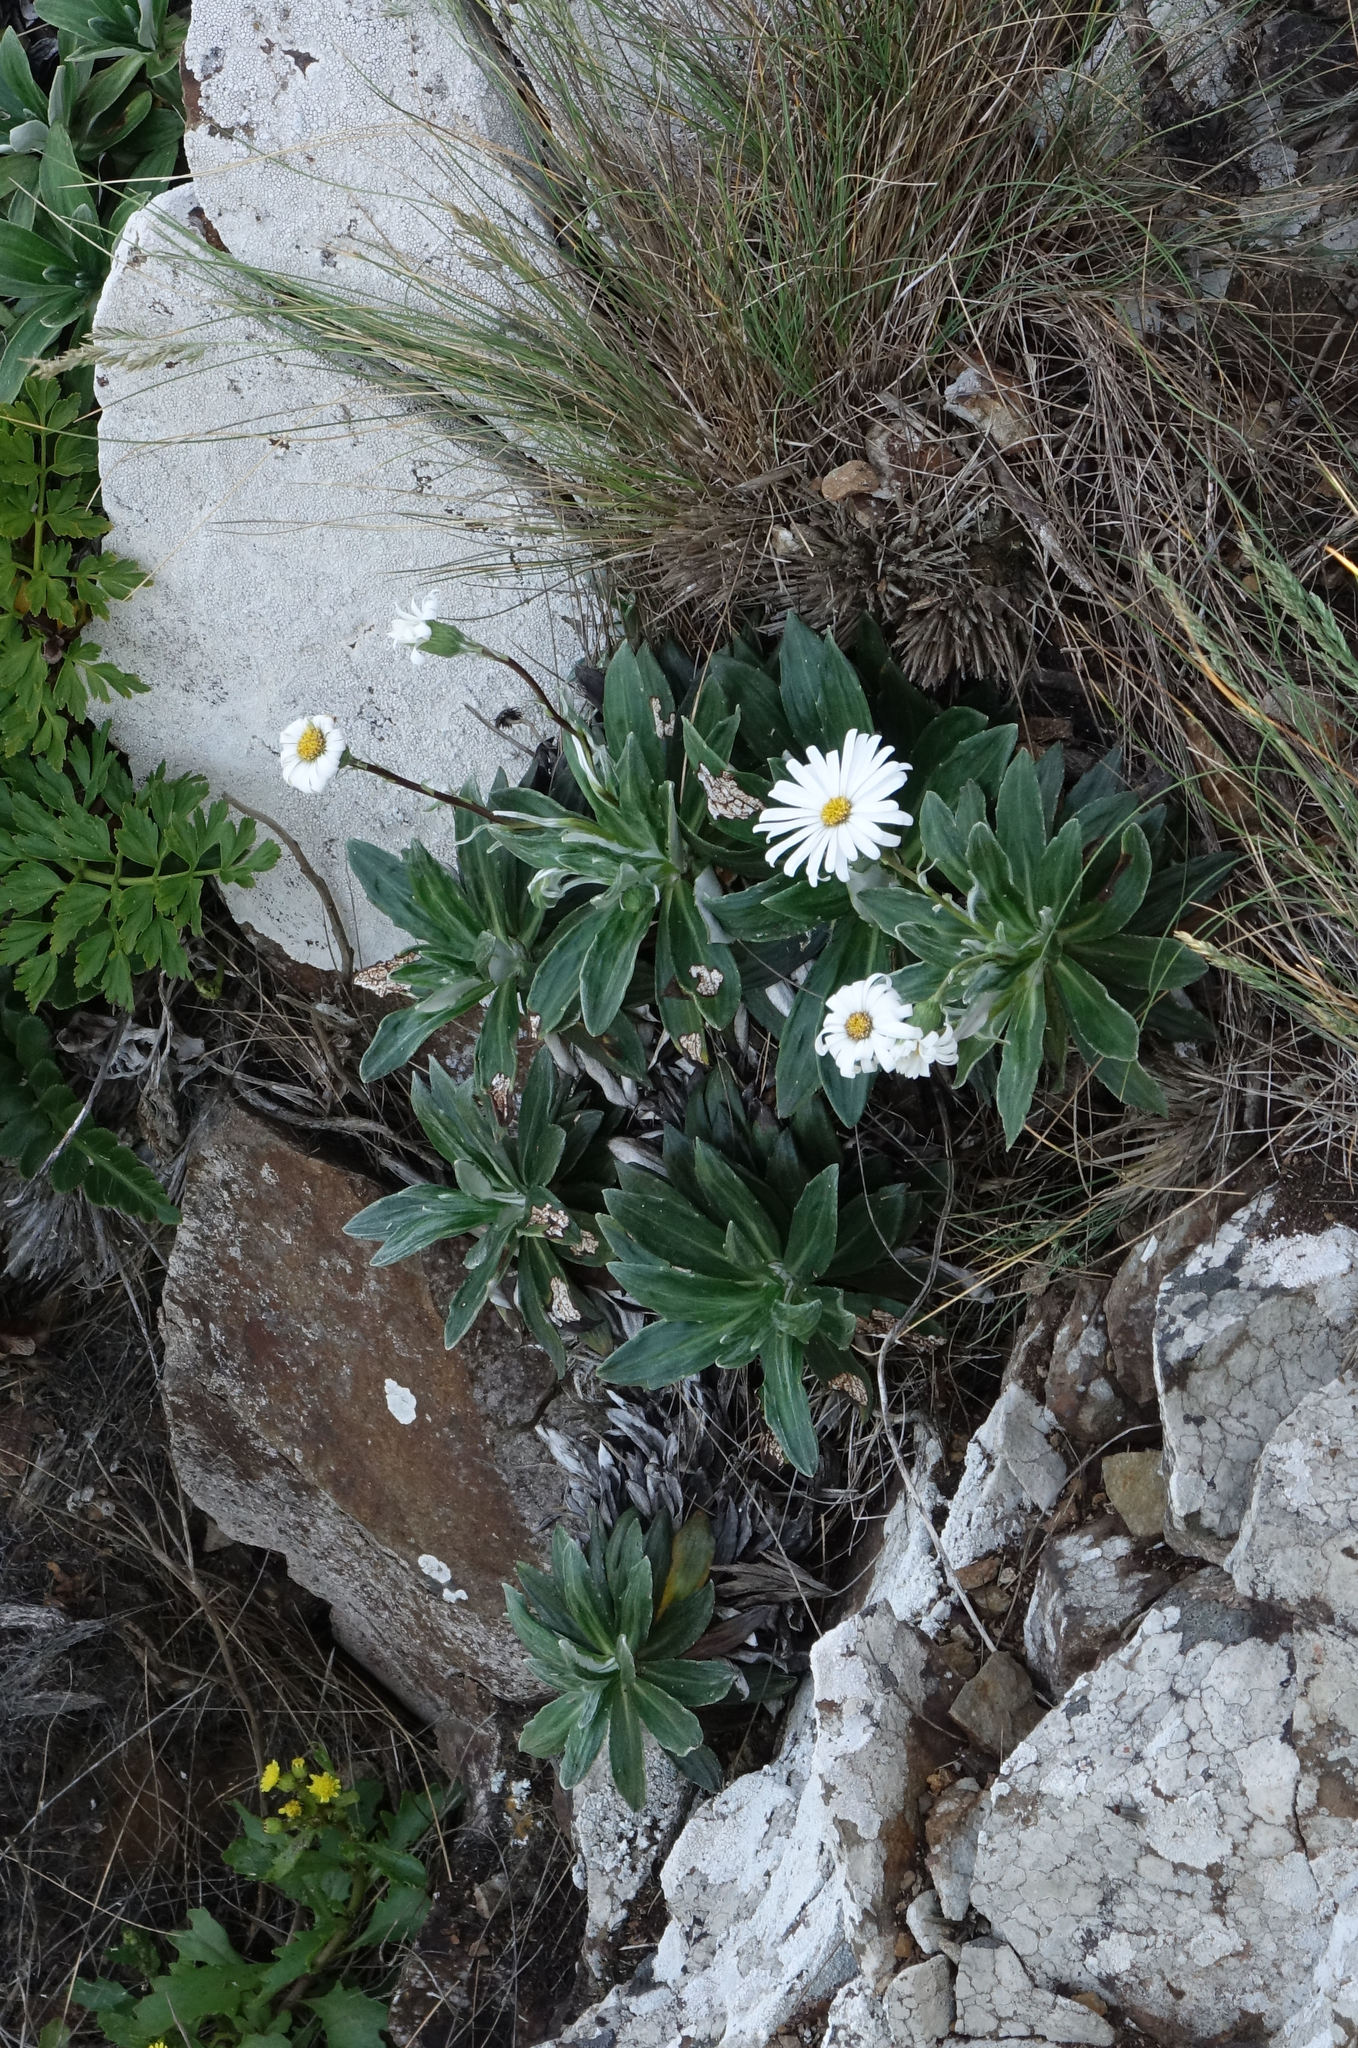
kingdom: Plantae
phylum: Tracheophyta
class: Magnoliopsida
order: Asterales
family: Asteraceae
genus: Celmisia
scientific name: Celmisia lindsayi
